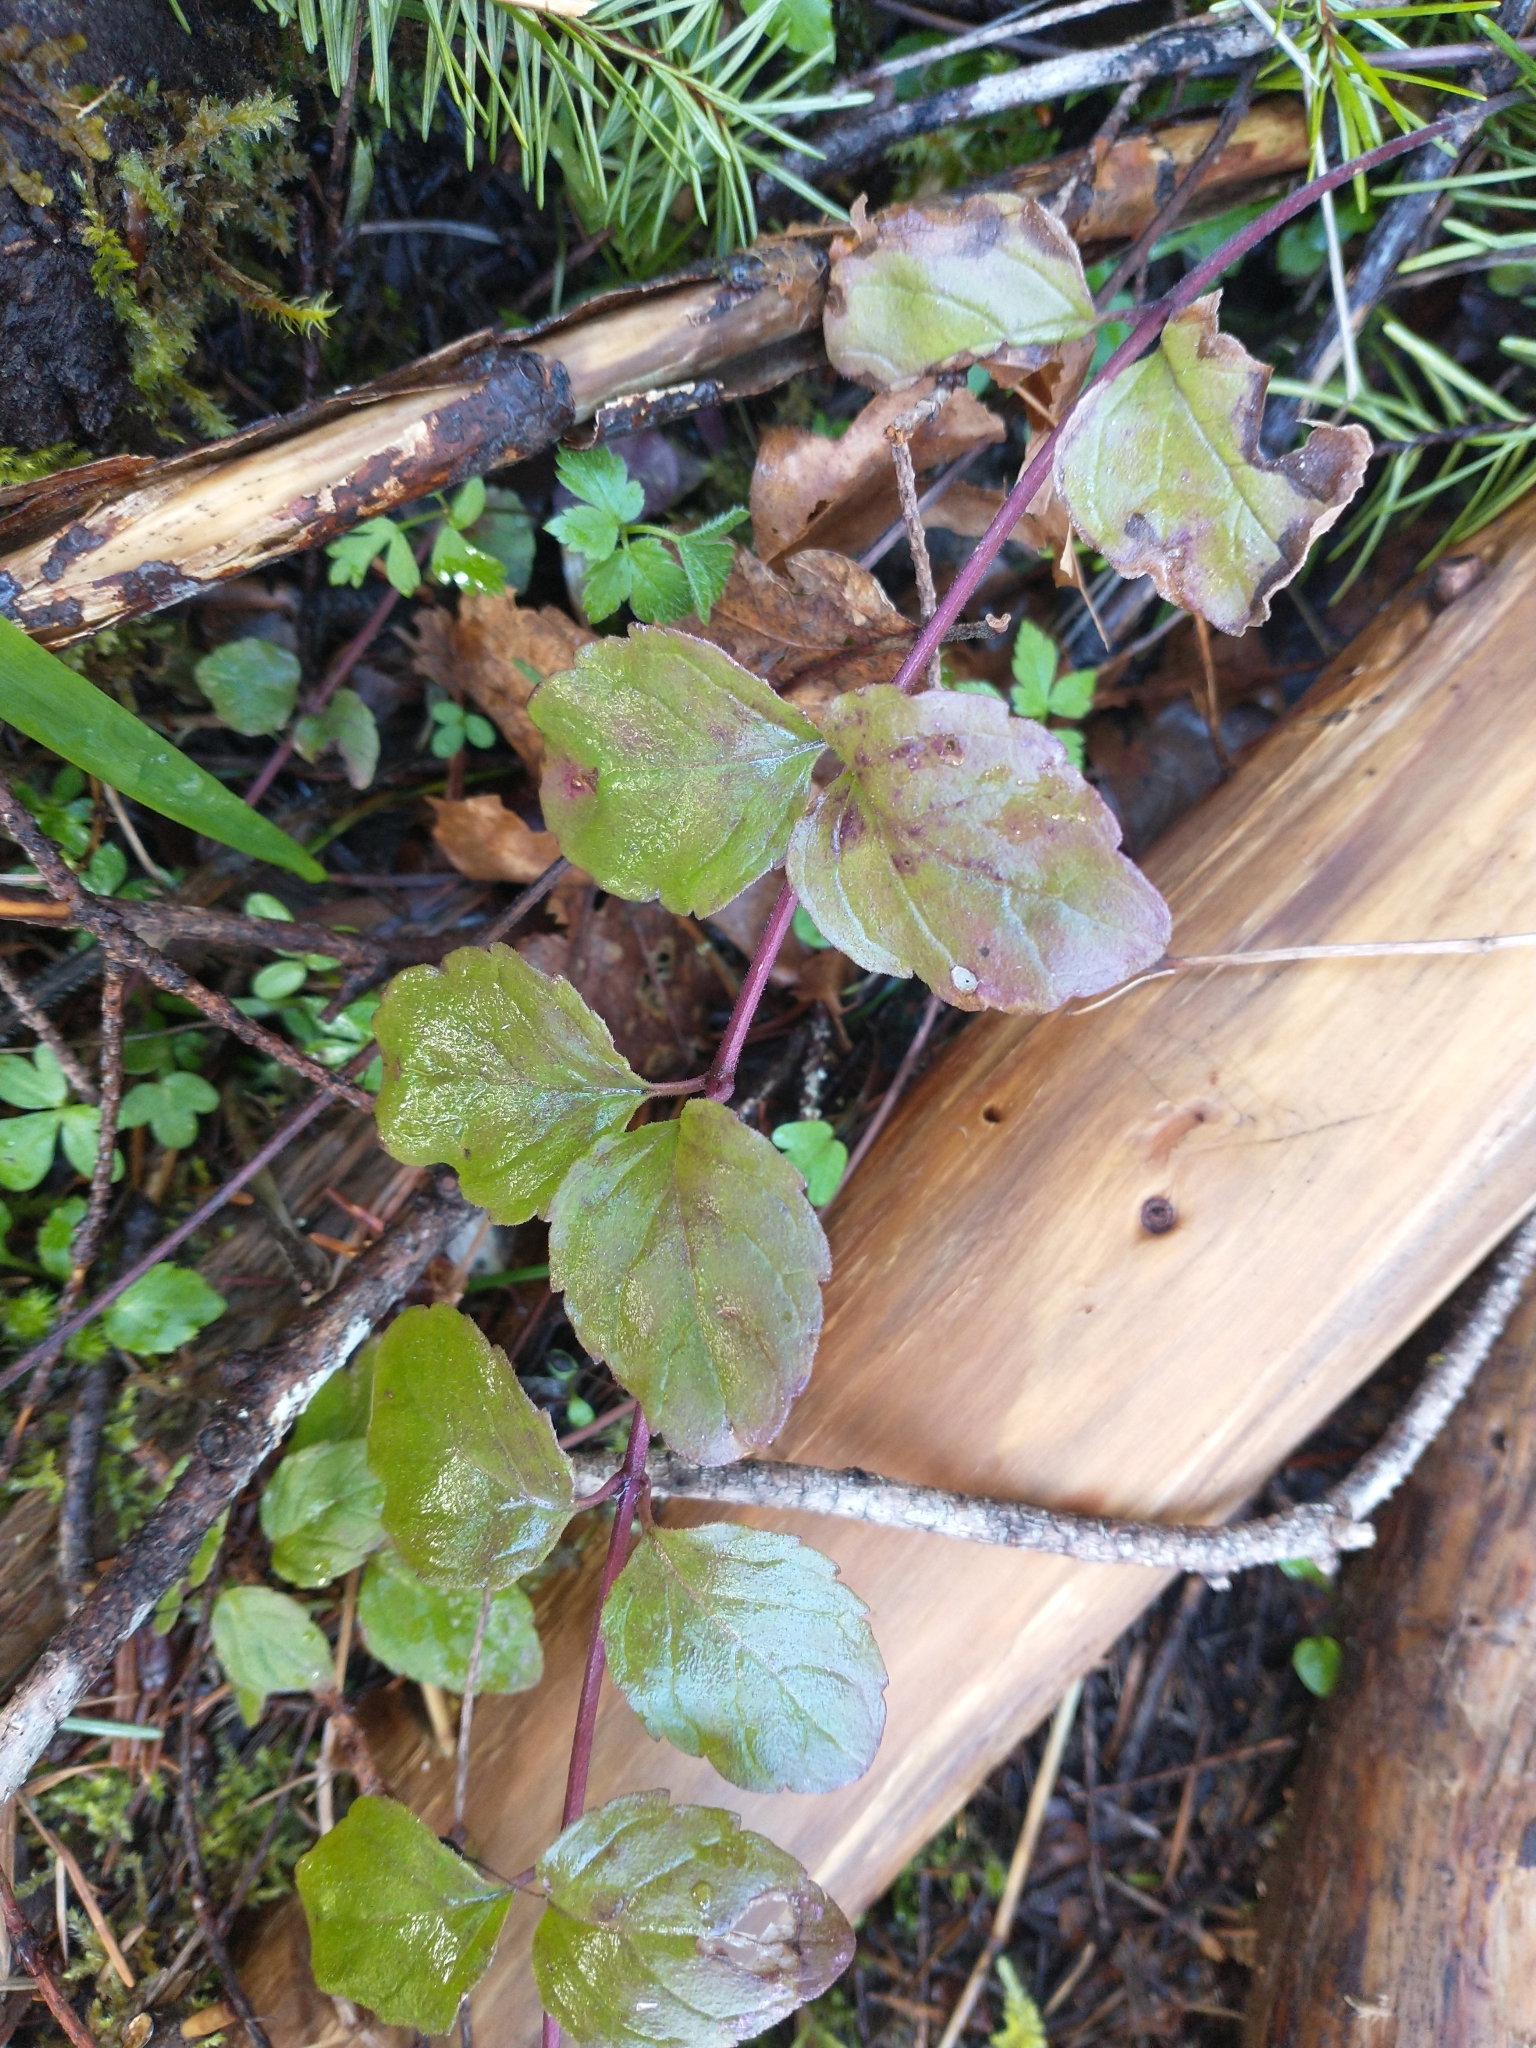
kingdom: Plantae
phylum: Tracheophyta
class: Magnoliopsida
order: Lamiales
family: Lamiaceae
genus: Micromeria
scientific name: Micromeria douglasii
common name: Yerba buena
